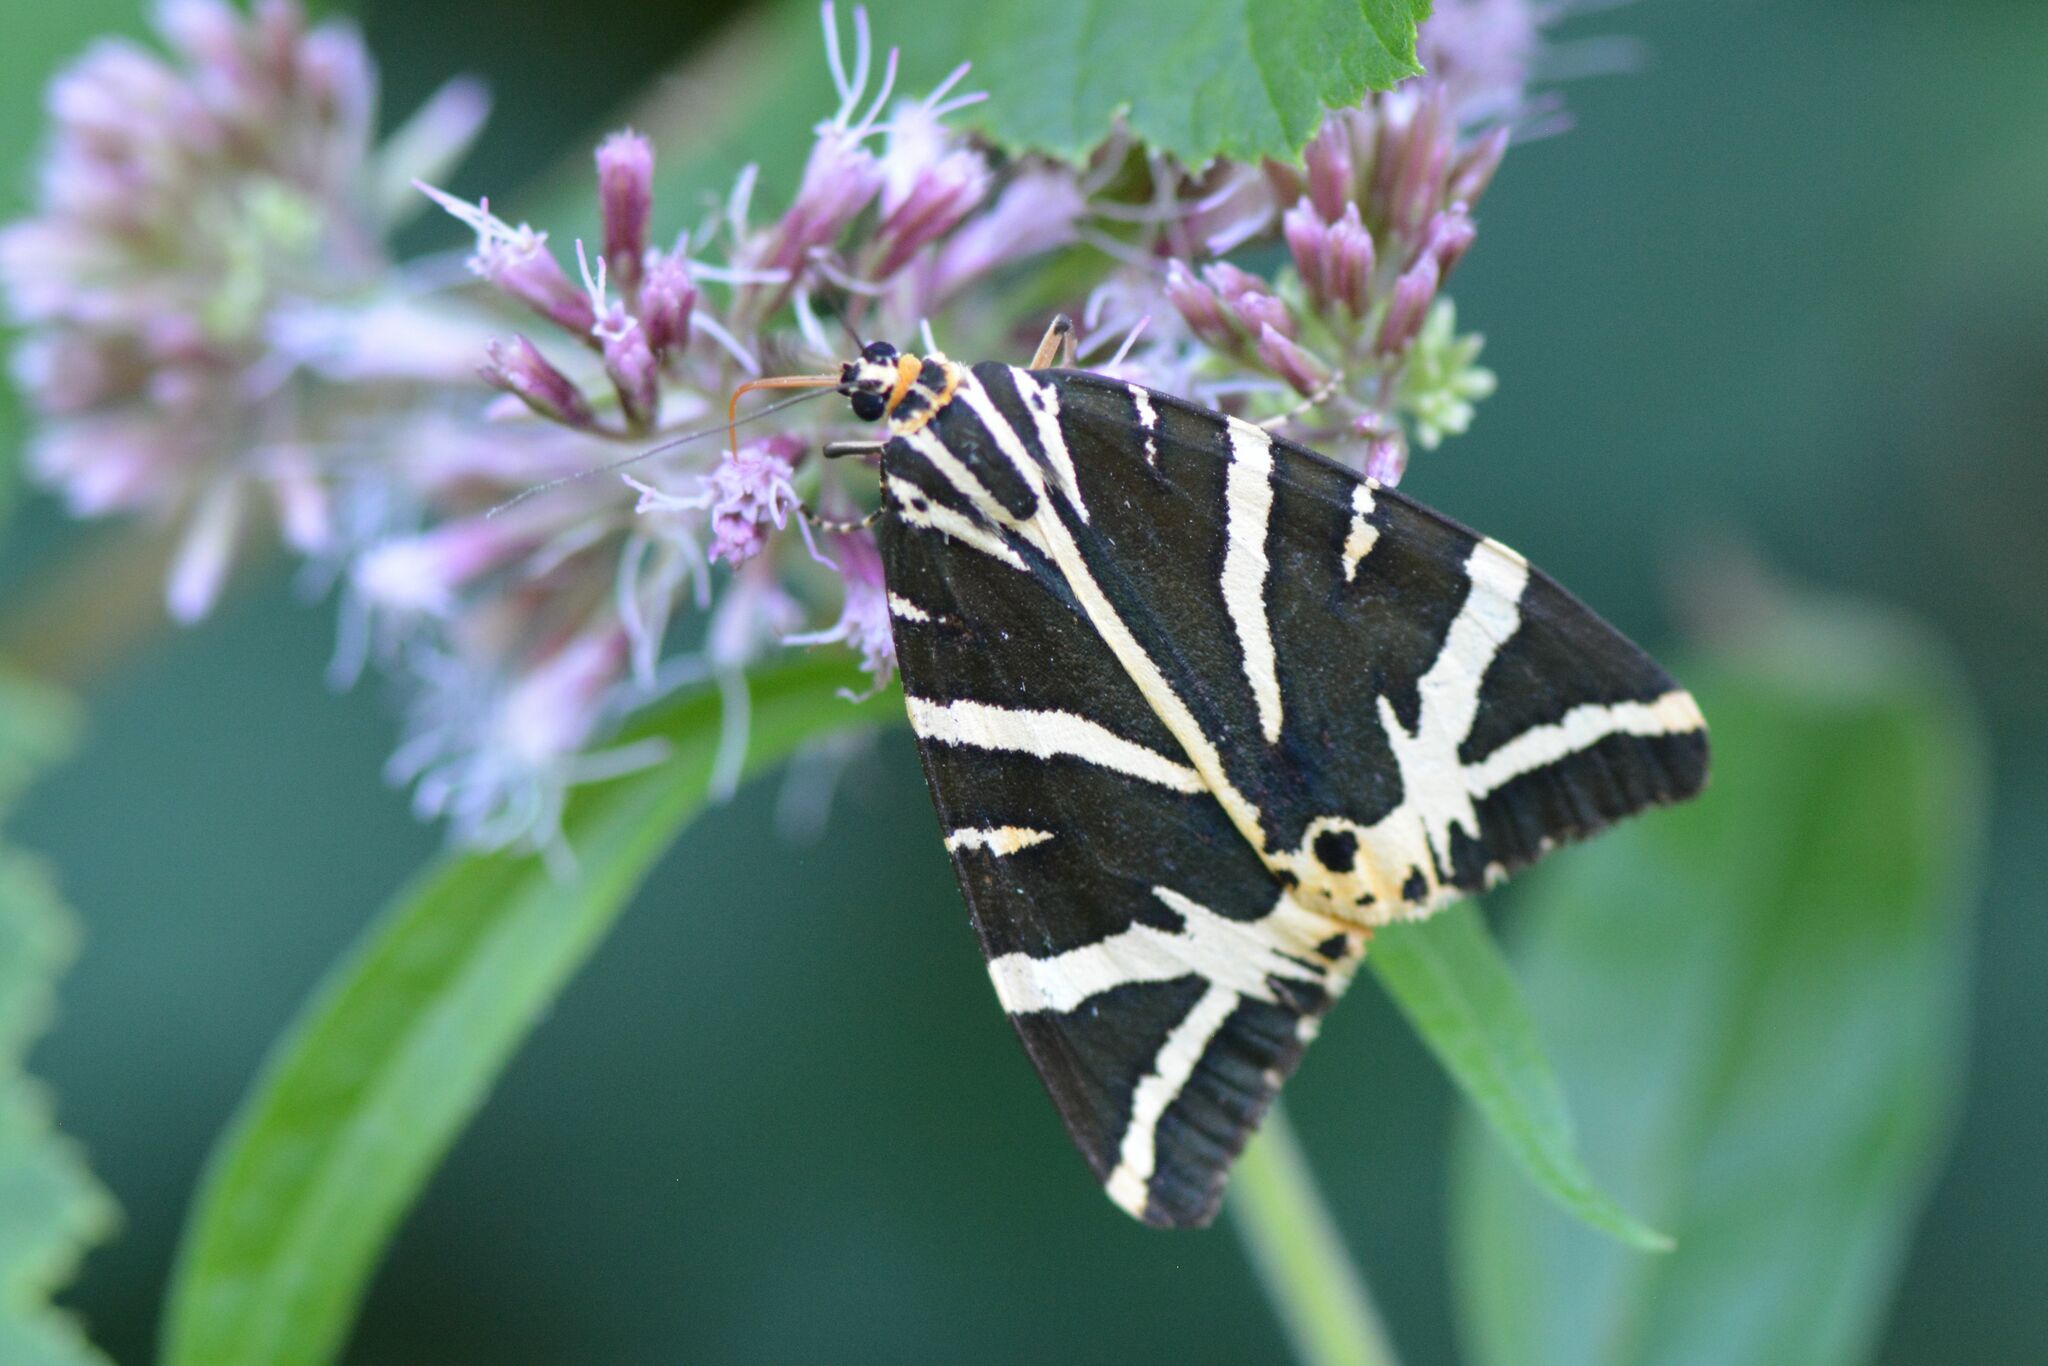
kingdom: Animalia
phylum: Arthropoda
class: Insecta
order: Lepidoptera
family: Erebidae
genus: Euplagia
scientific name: Euplagia quadripunctaria
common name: Jersey tiger
